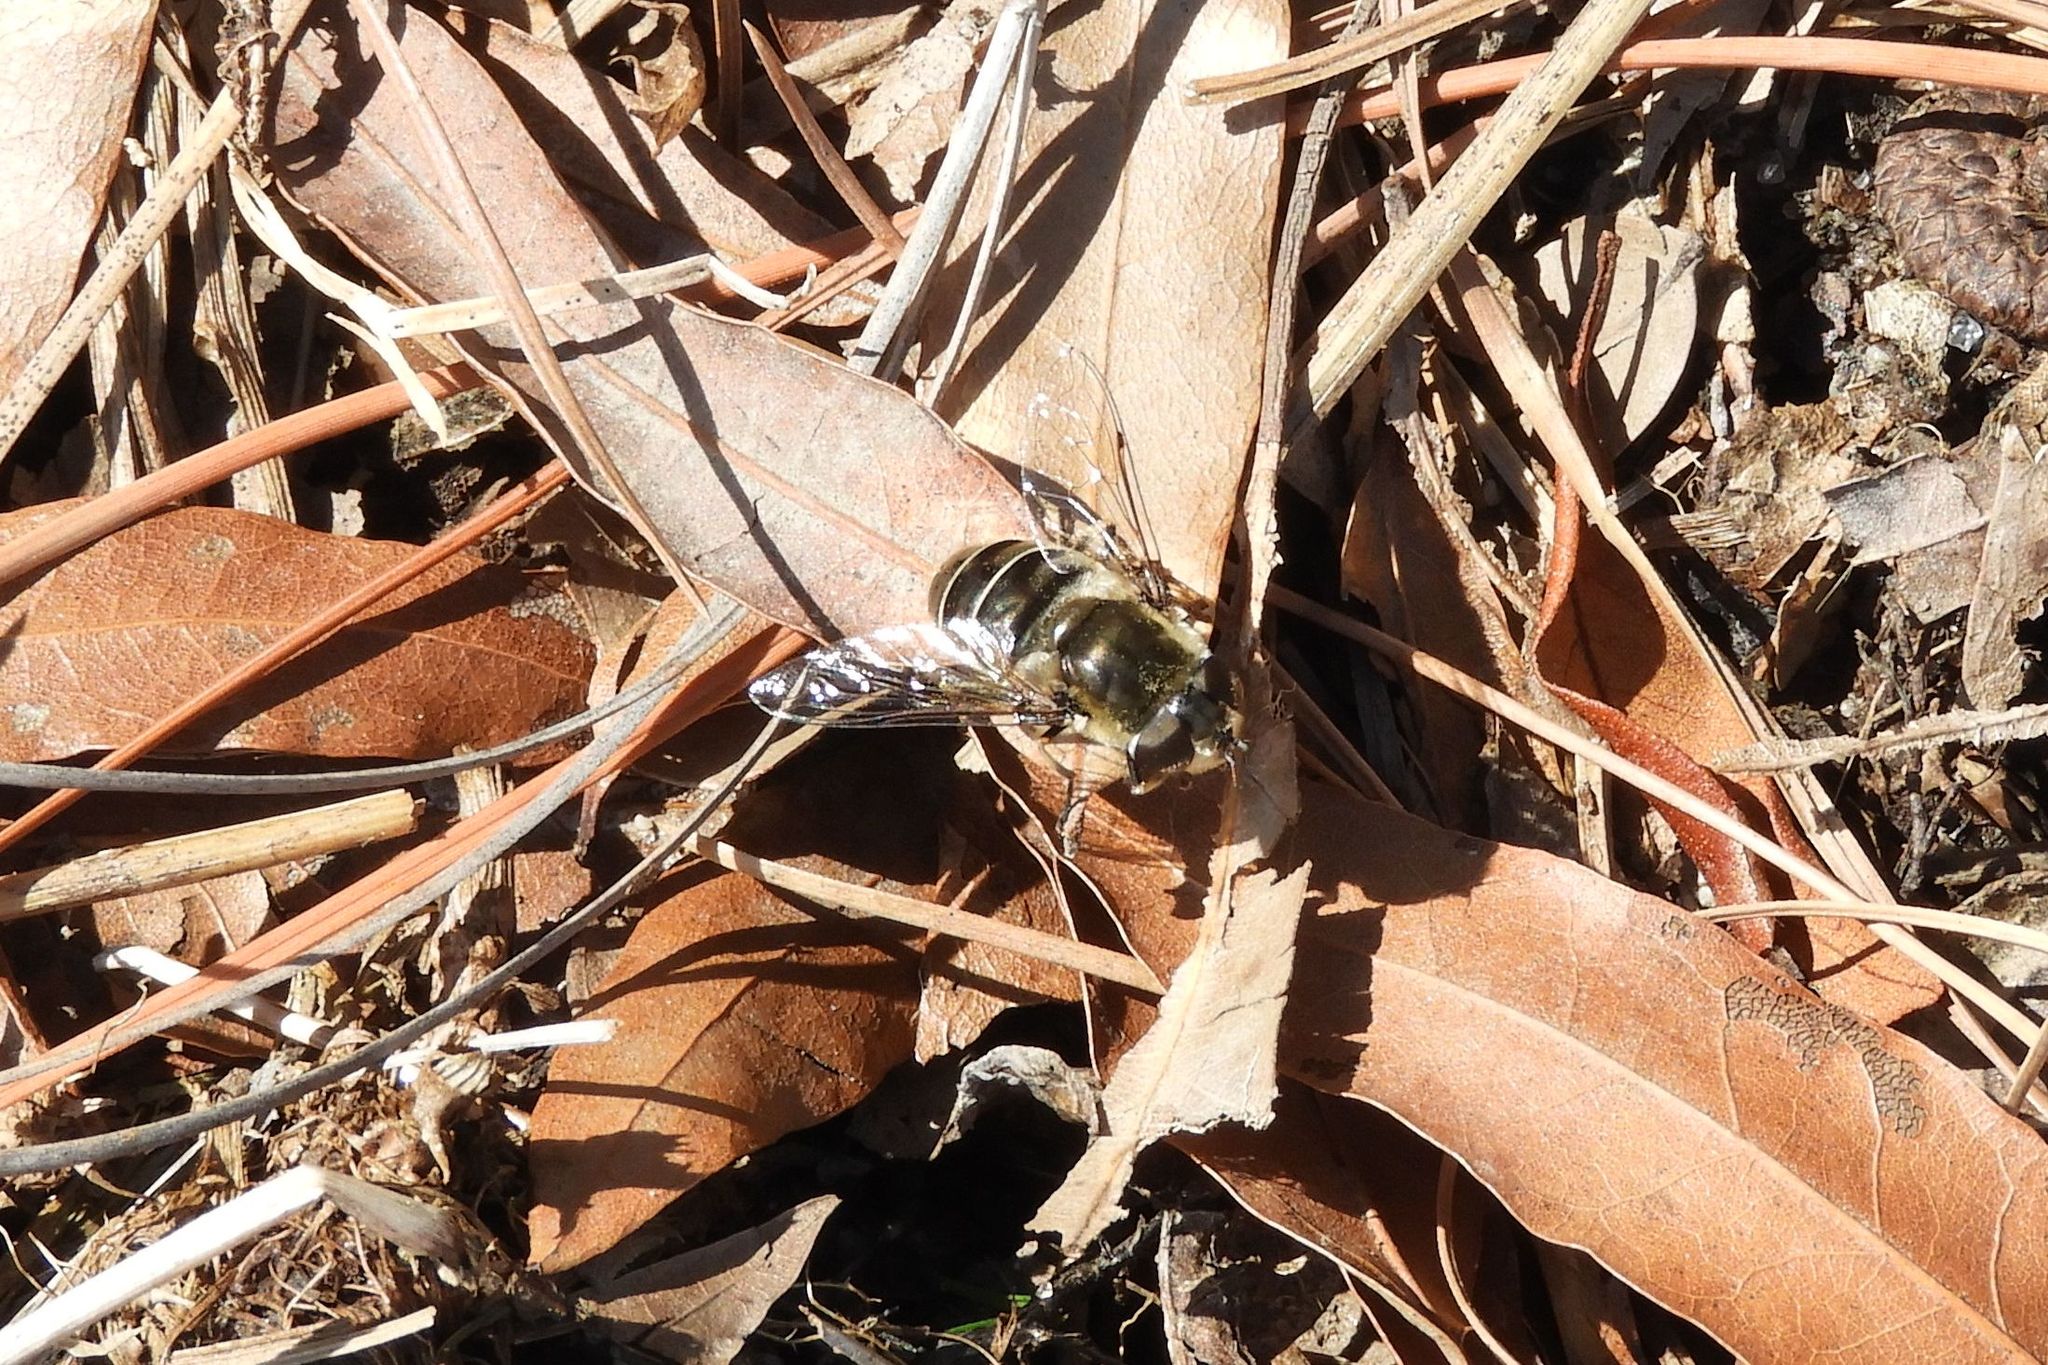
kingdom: Animalia
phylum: Arthropoda
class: Insecta
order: Diptera
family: Syrphidae
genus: Eristalis
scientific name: Eristalis dimidiata
